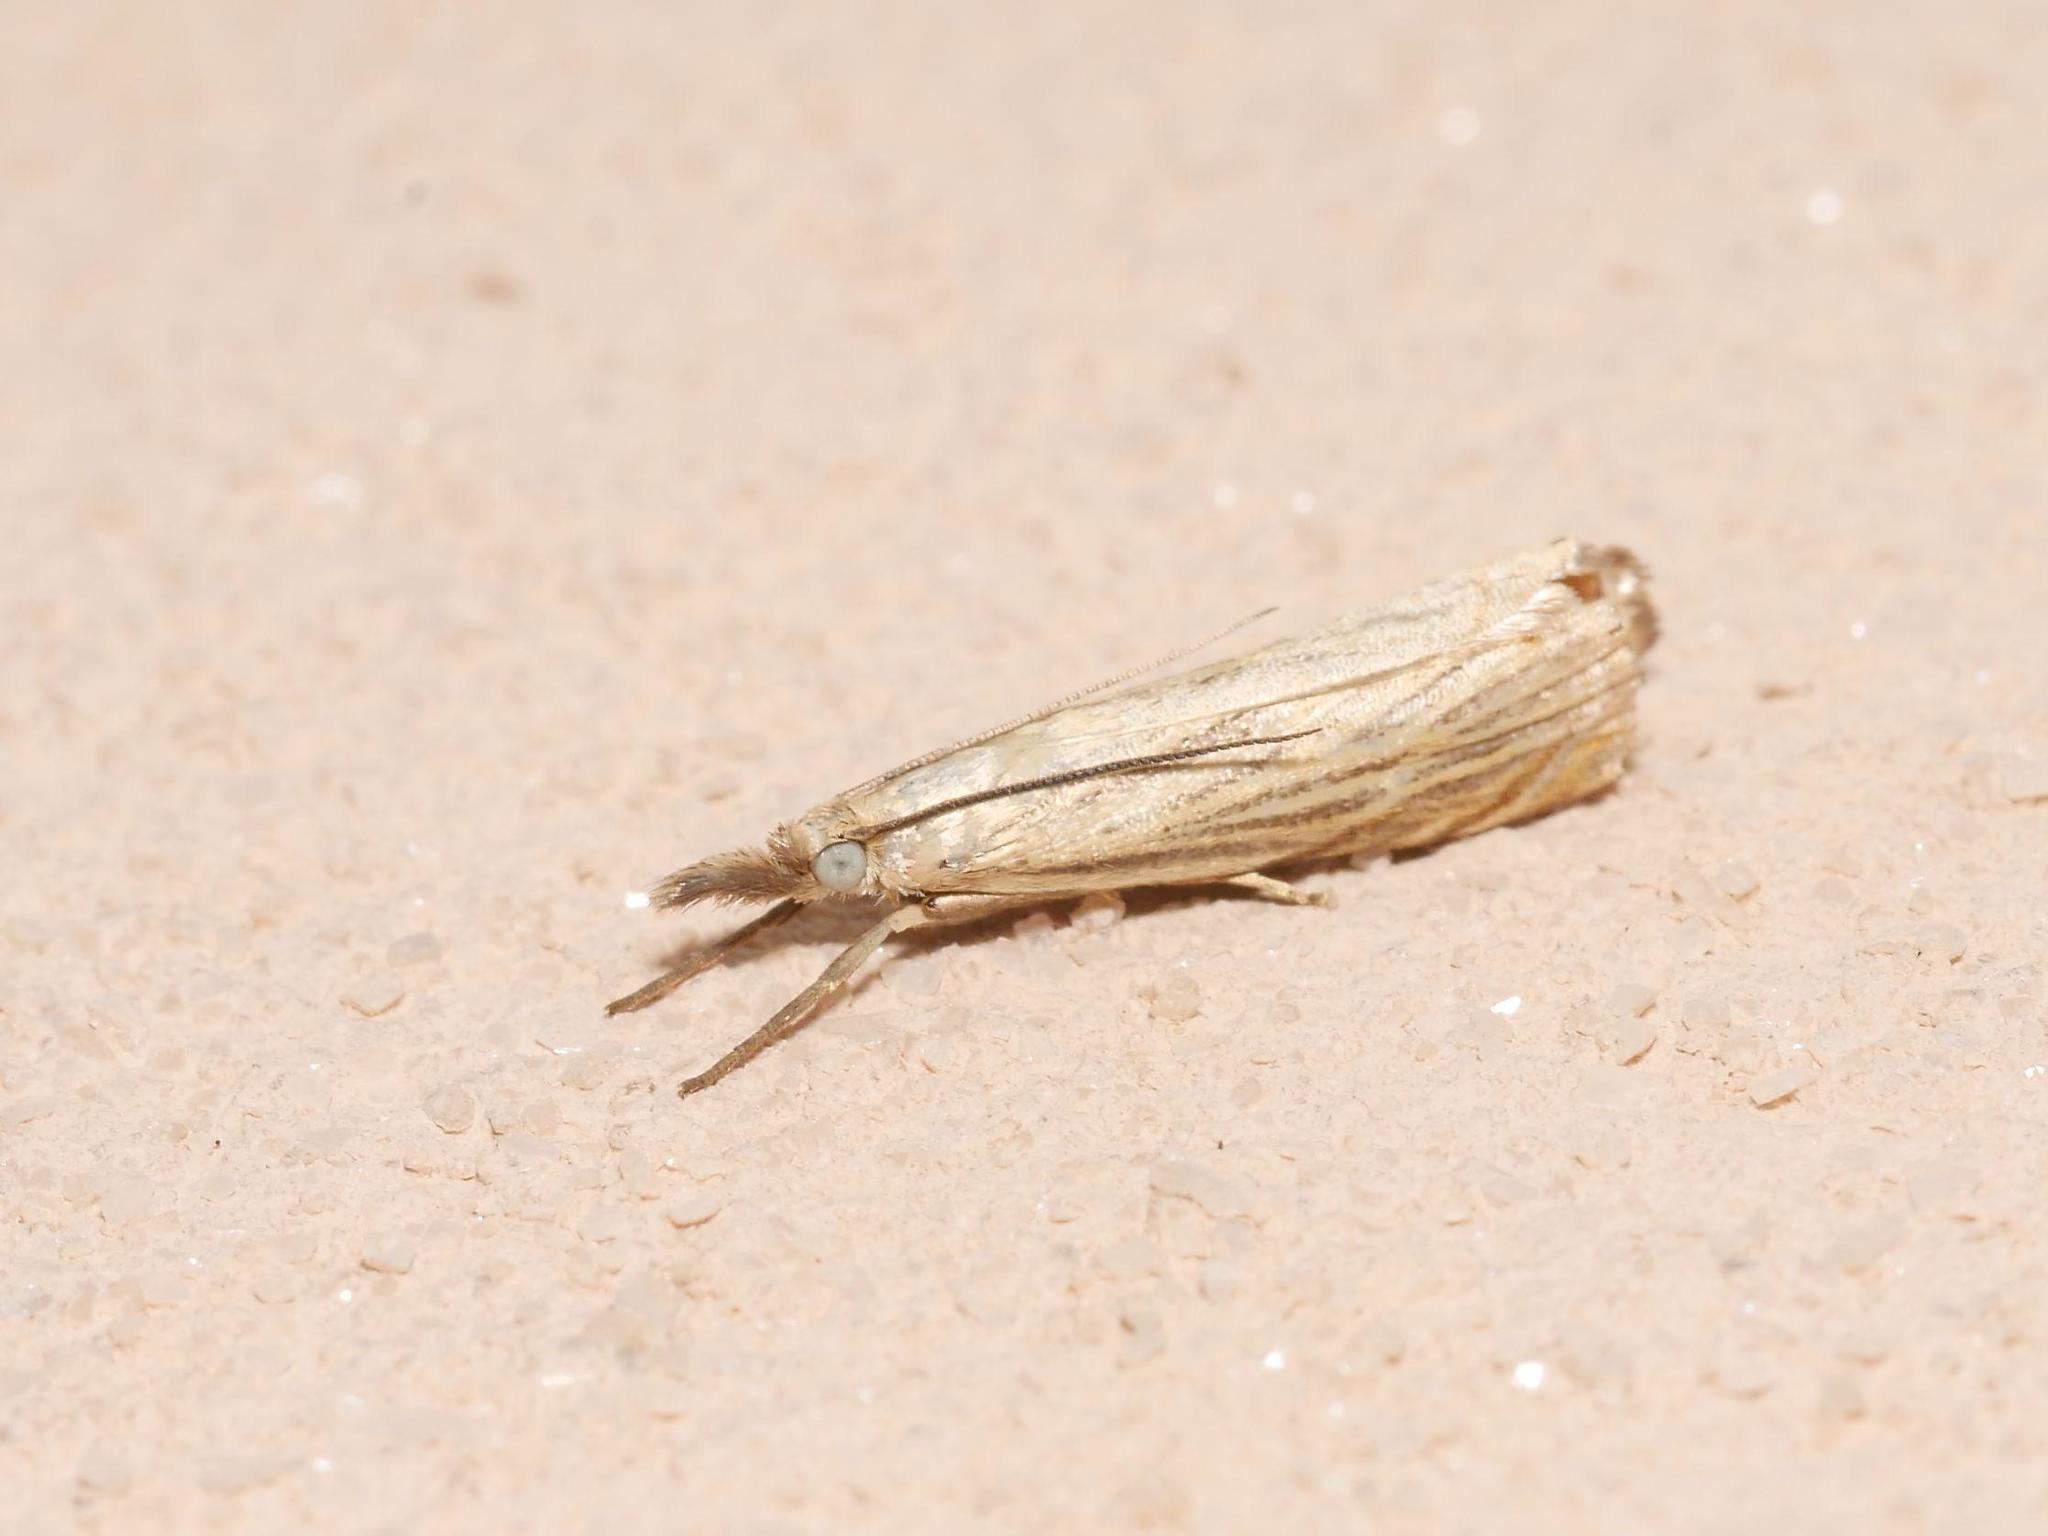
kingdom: Animalia
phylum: Arthropoda
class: Insecta
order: Lepidoptera
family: Crambidae
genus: Chrysoteuchia
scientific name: Chrysoteuchia culmella
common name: Garden grass-veneer
